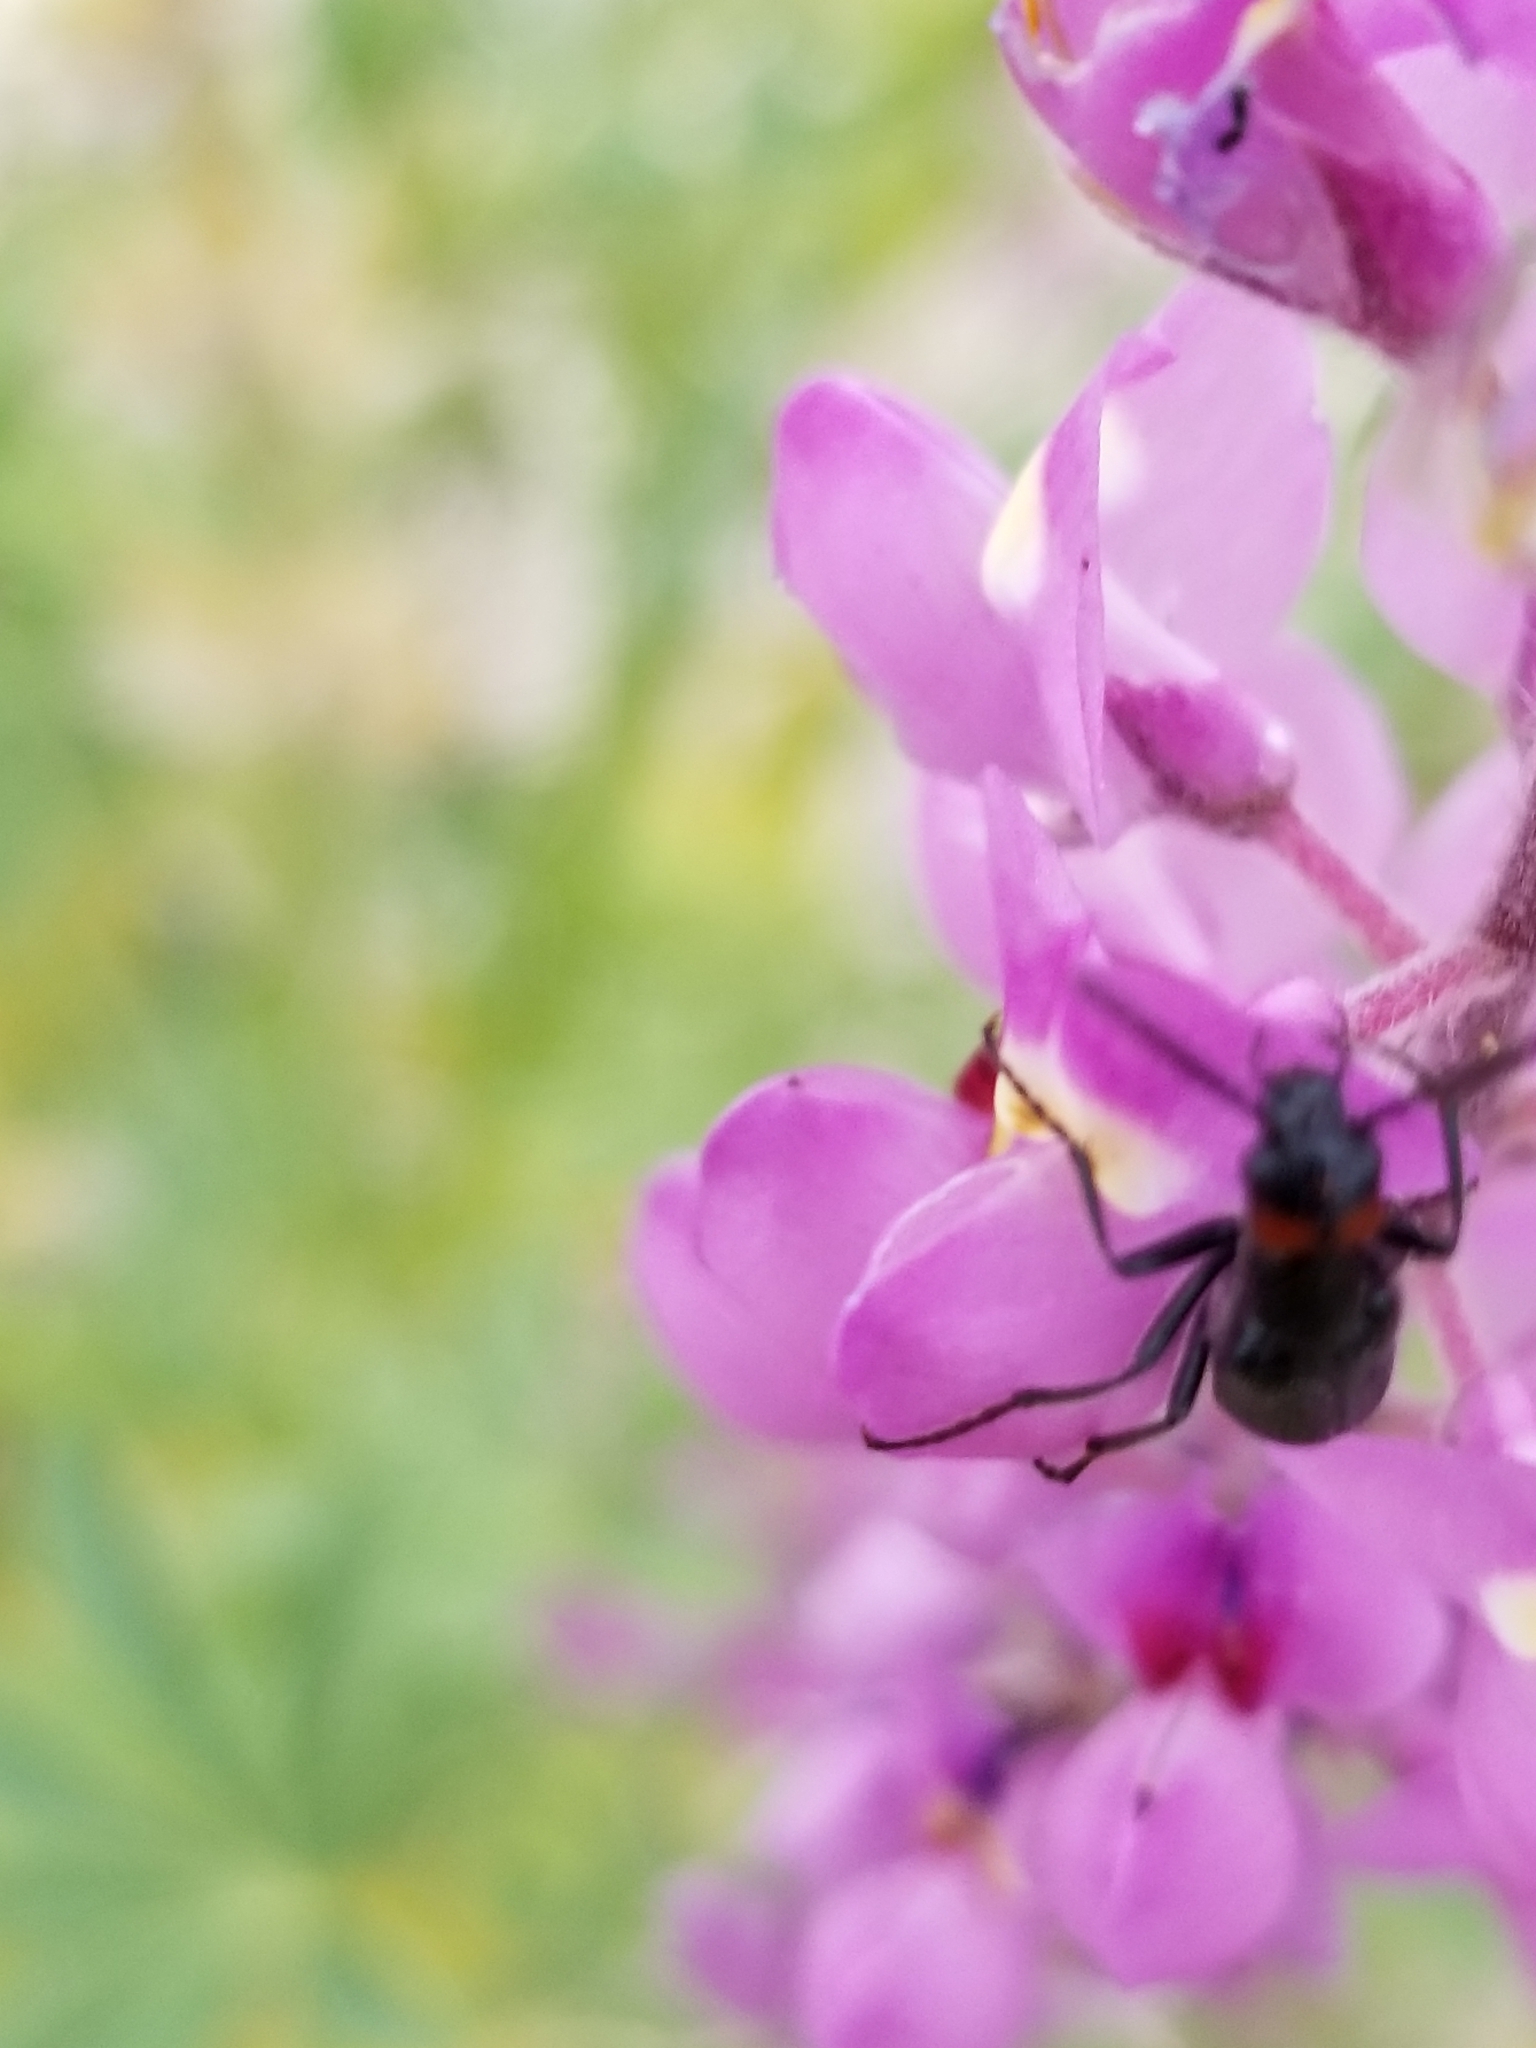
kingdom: Animalia
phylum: Arthropoda
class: Insecta
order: Coleoptera
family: Meloidae
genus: Lytta
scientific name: Lytta auriculata
